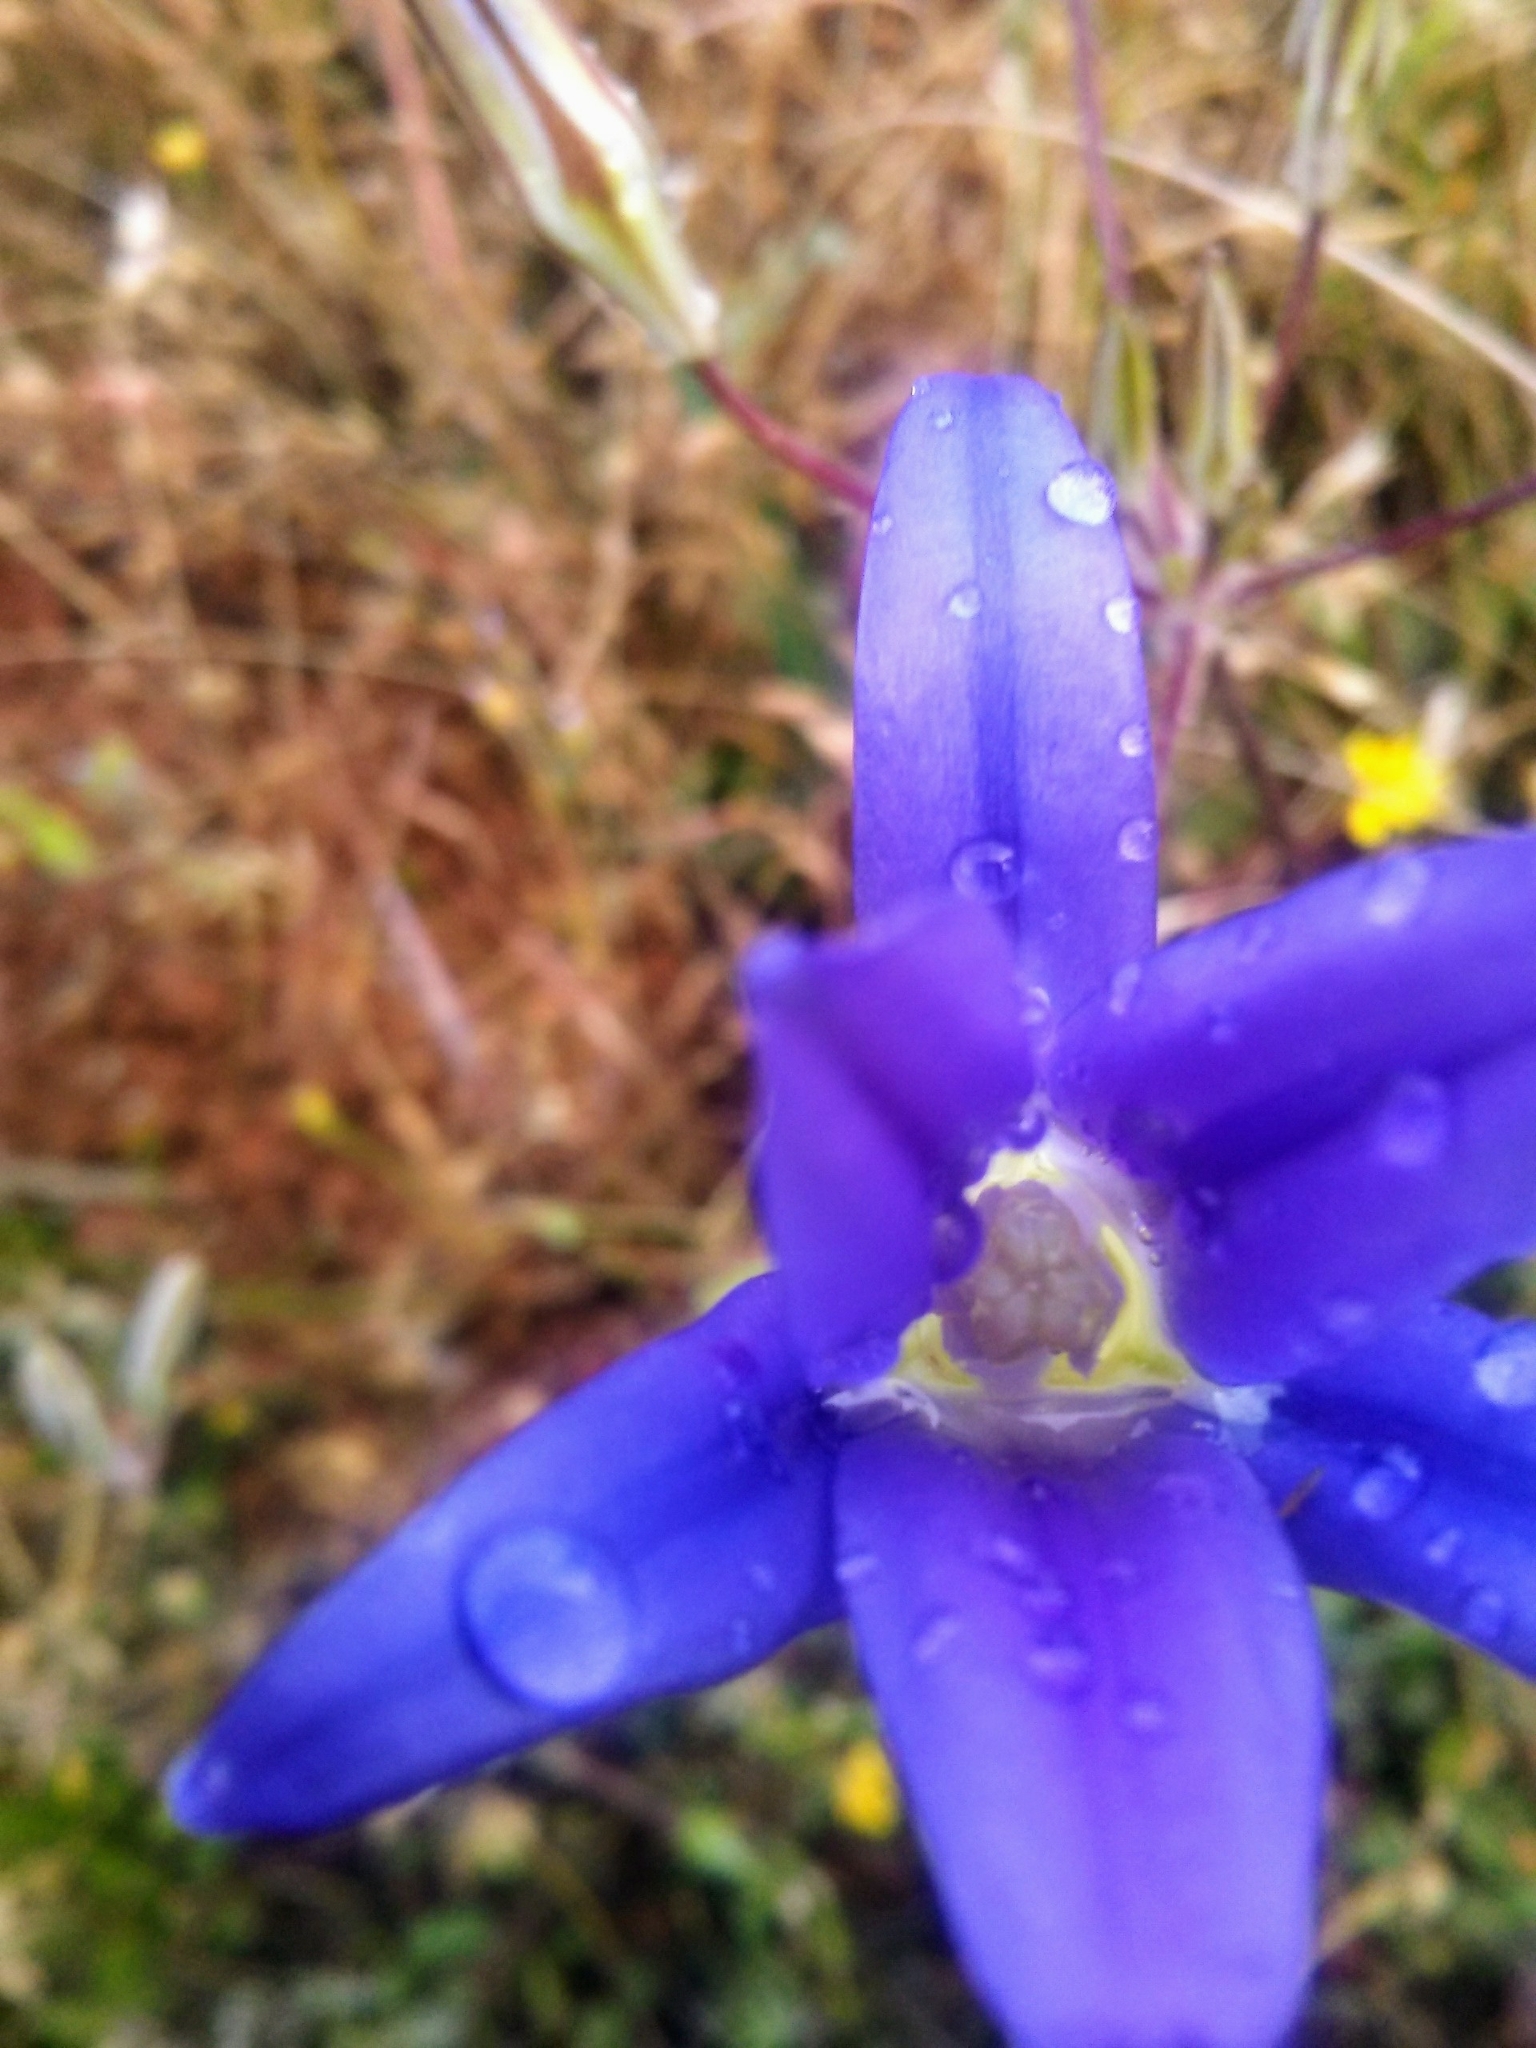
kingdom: Plantae
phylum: Tracheophyta
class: Liliopsida
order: Asparagales
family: Asparagaceae
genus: Brodiaea
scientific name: Brodiaea elegans
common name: Elegant cluster-lily
